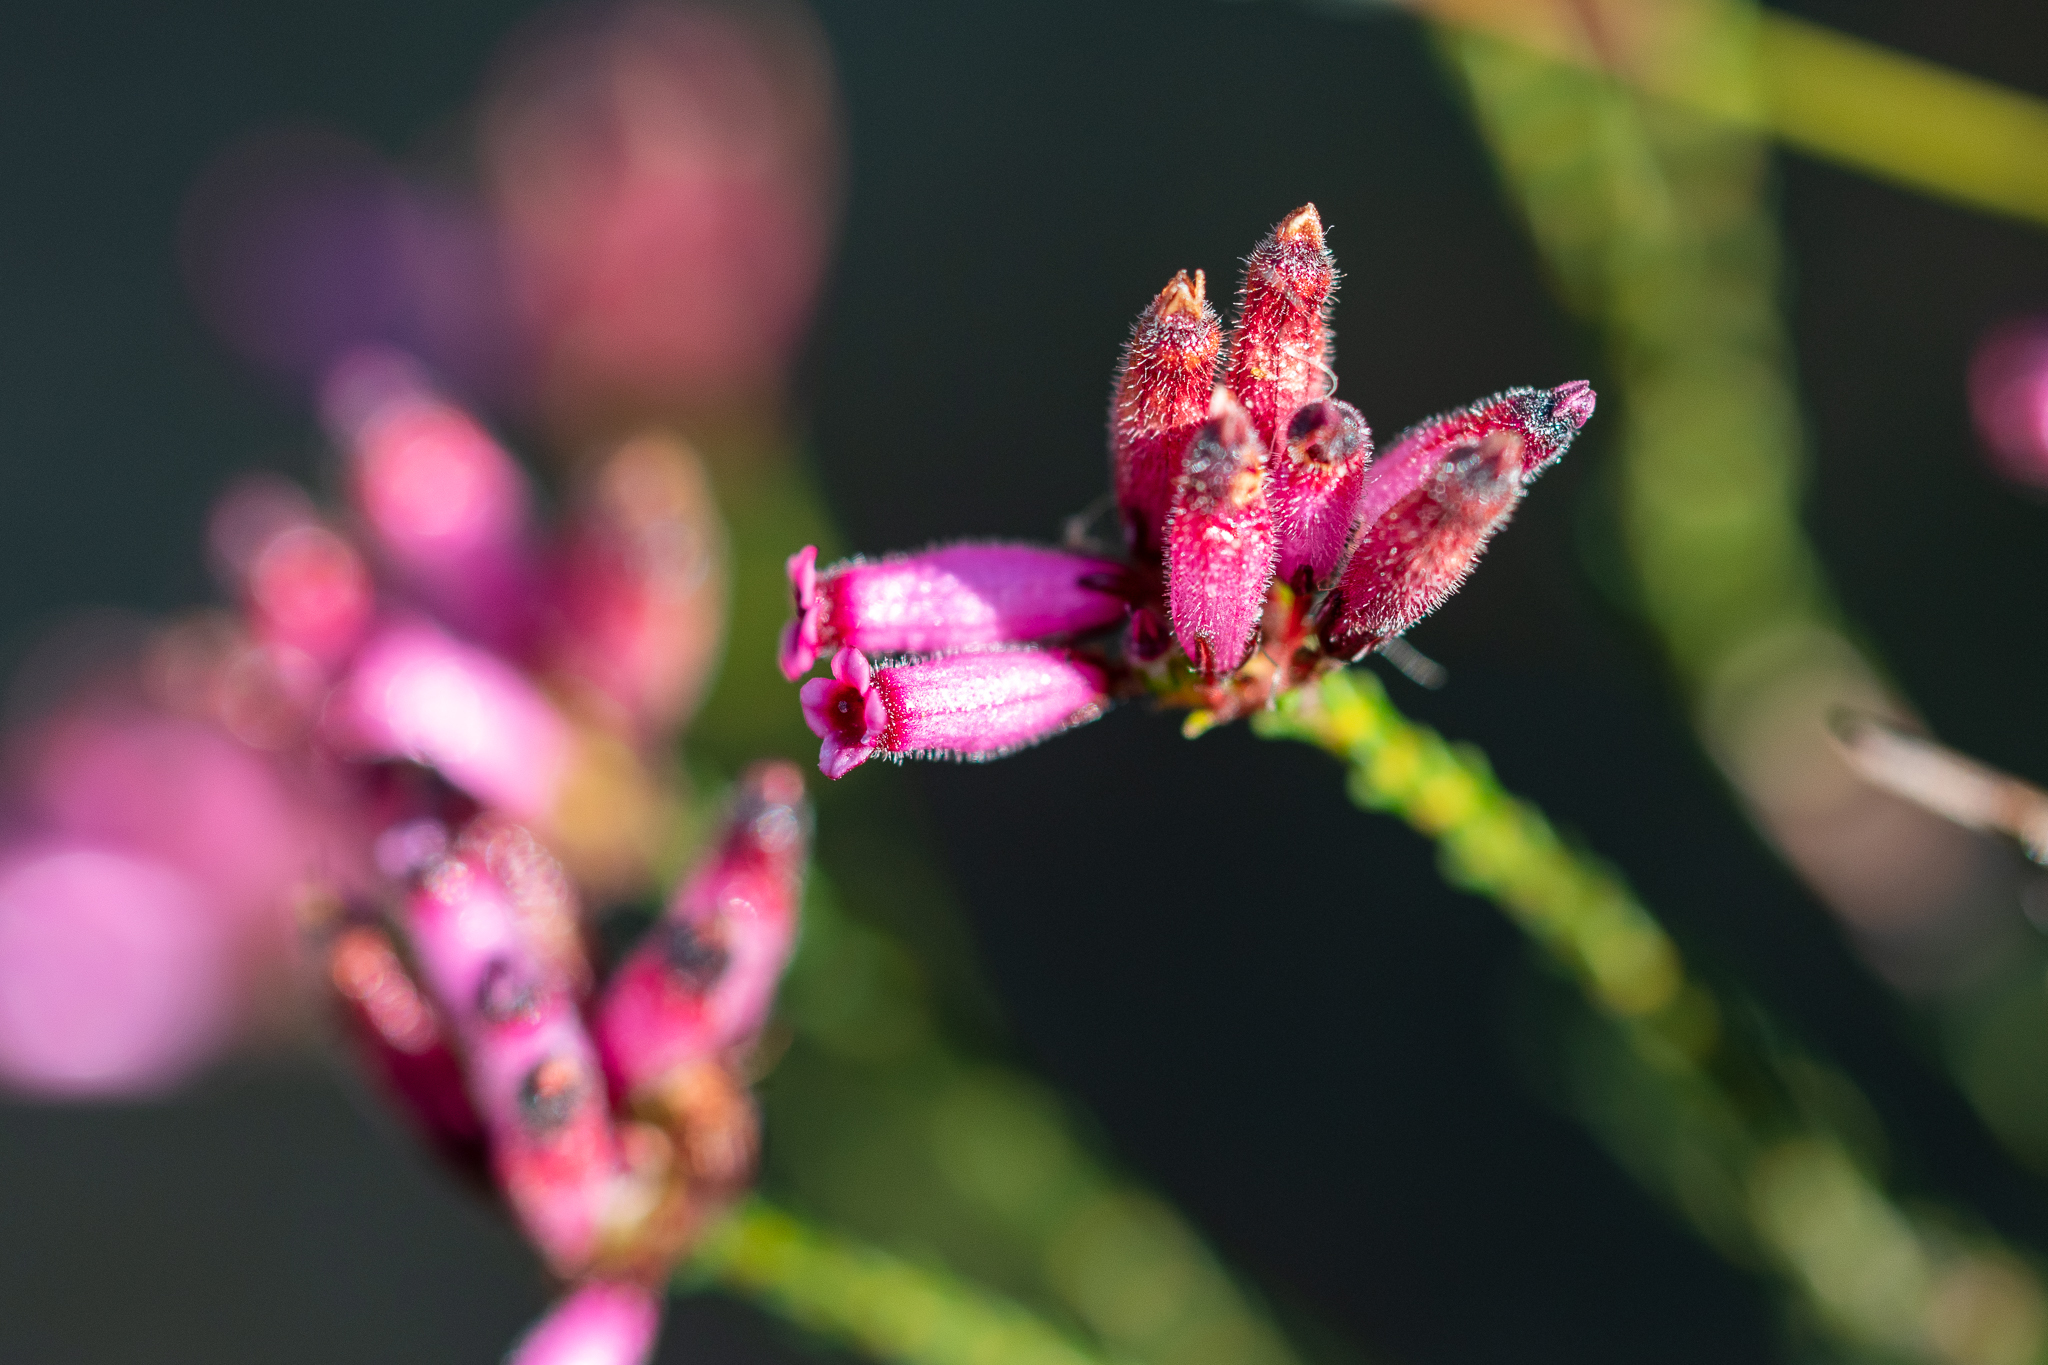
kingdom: Plantae
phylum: Tracheophyta
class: Magnoliopsida
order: Ericales
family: Ericaceae
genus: Erica
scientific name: Erica cristata
